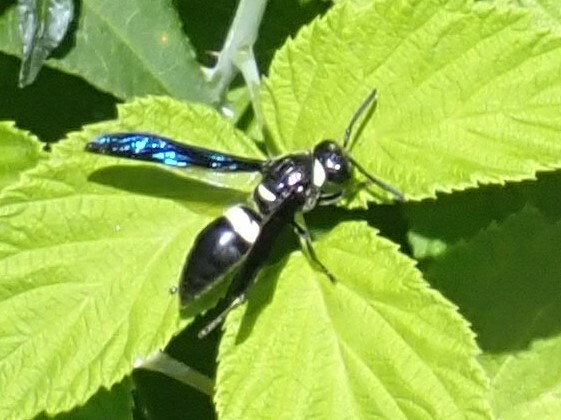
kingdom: Animalia
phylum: Arthropoda
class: Insecta
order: Hymenoptera
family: Eumenidae
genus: Monobia
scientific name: Monobia quadridens
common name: Four-toothed mason wasp
